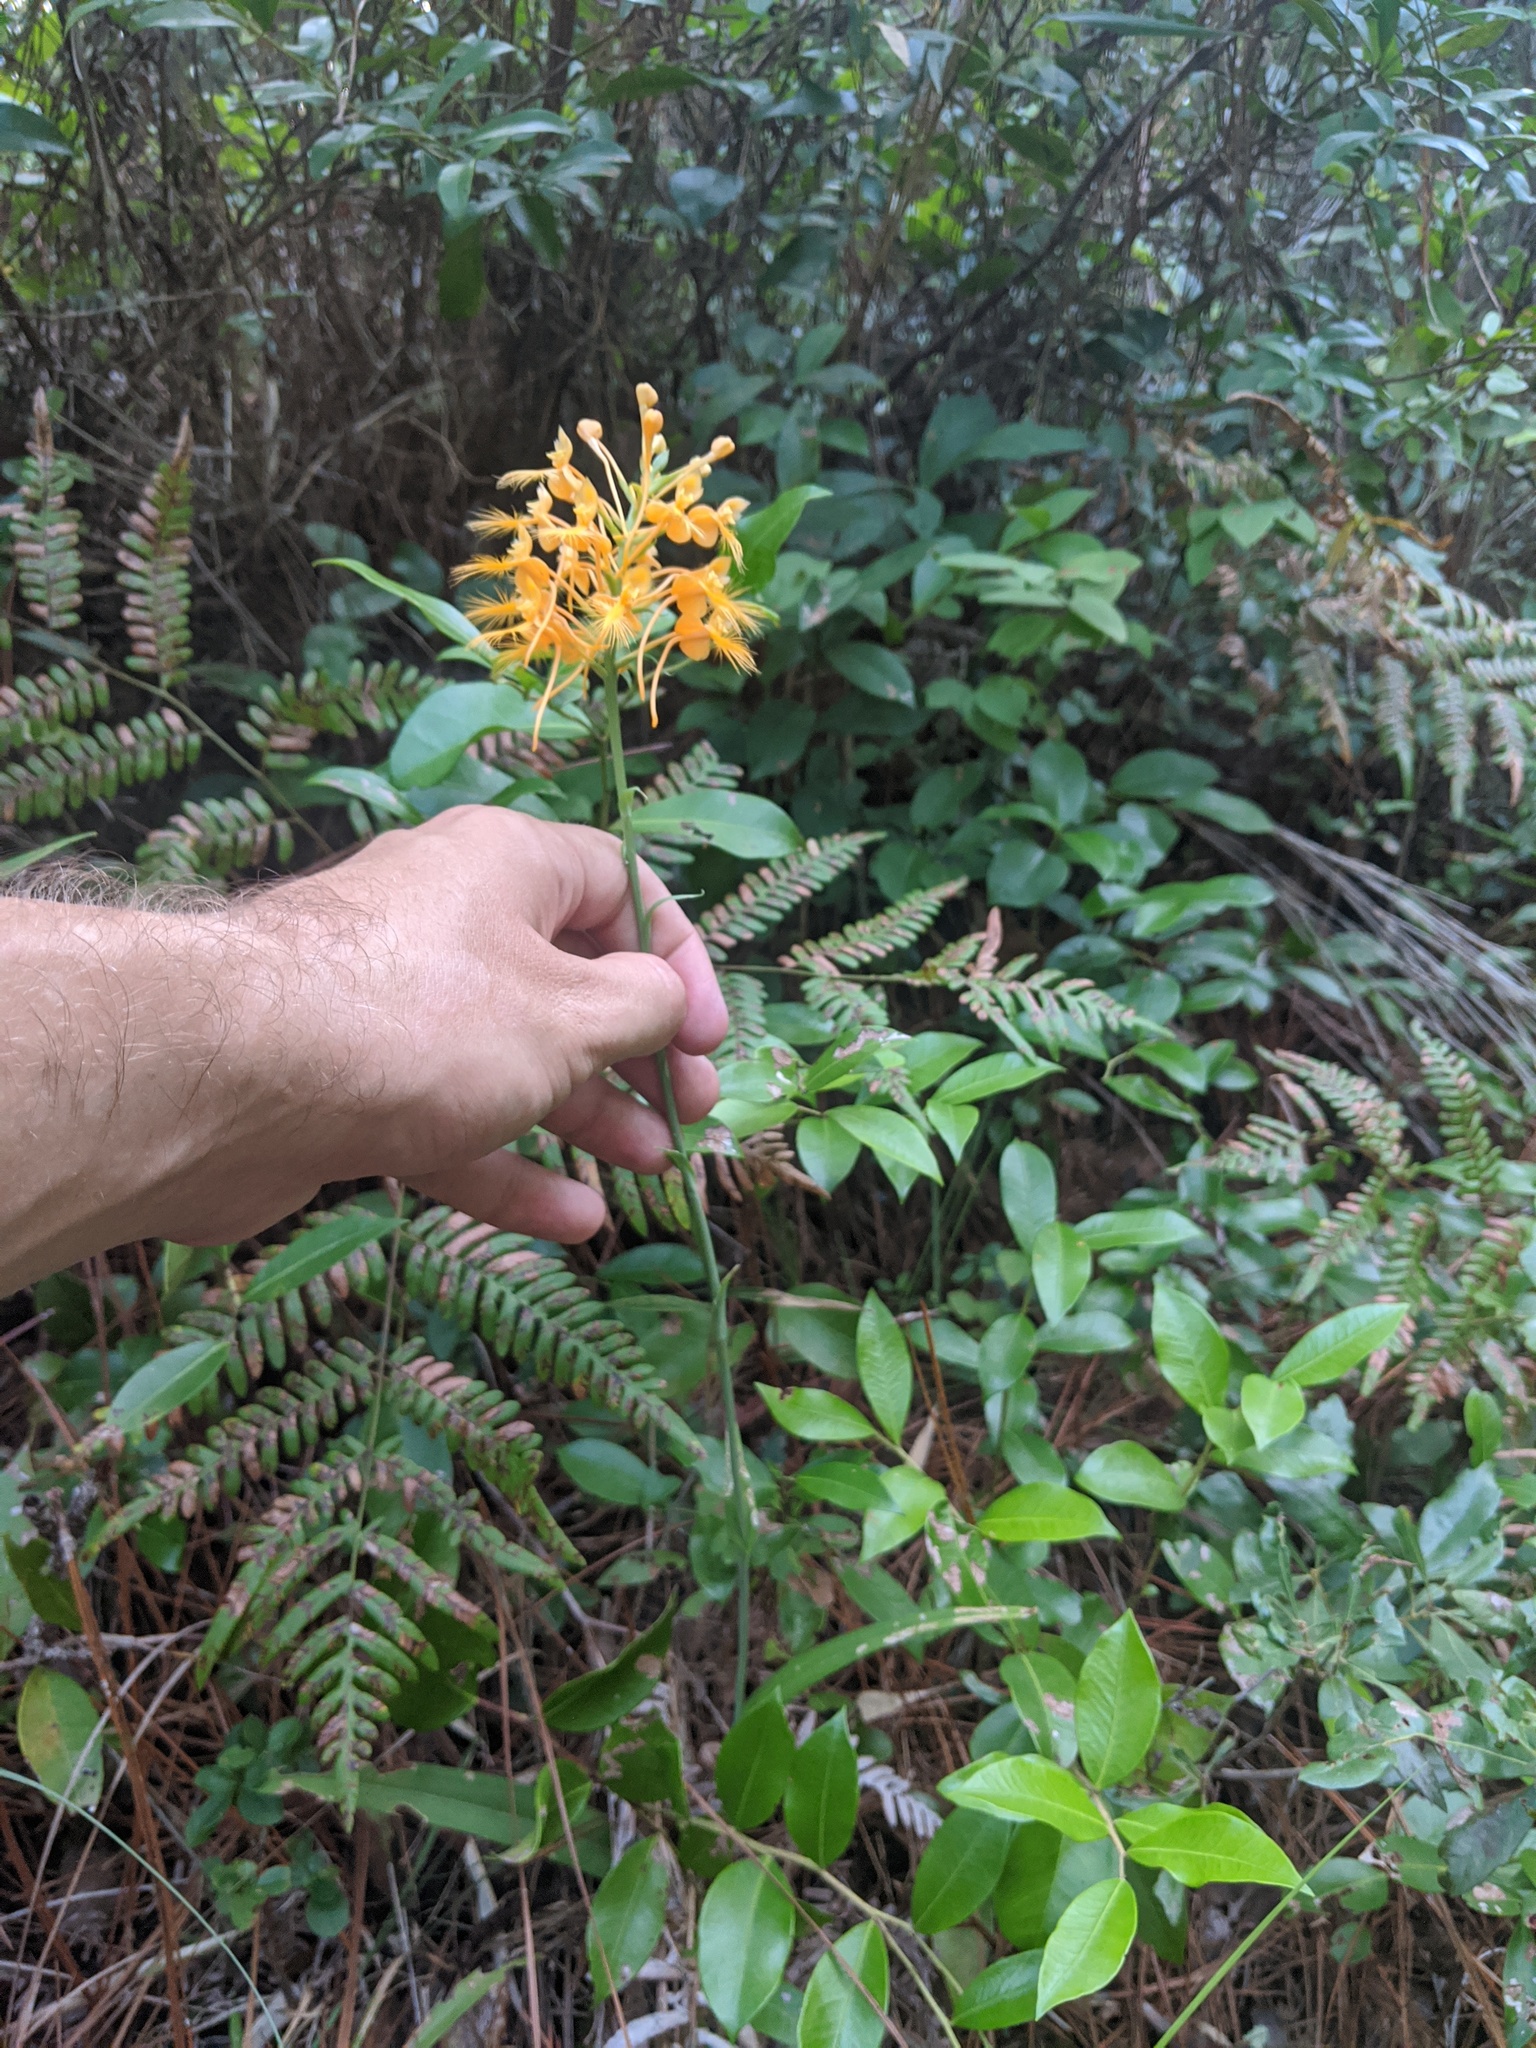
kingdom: Plantae
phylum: Tracheophyta
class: Liliopsida
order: Asparagales
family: Orchidaceae
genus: Platanthera
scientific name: Platanthera ciliaris
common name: Yellow fringed orchid
